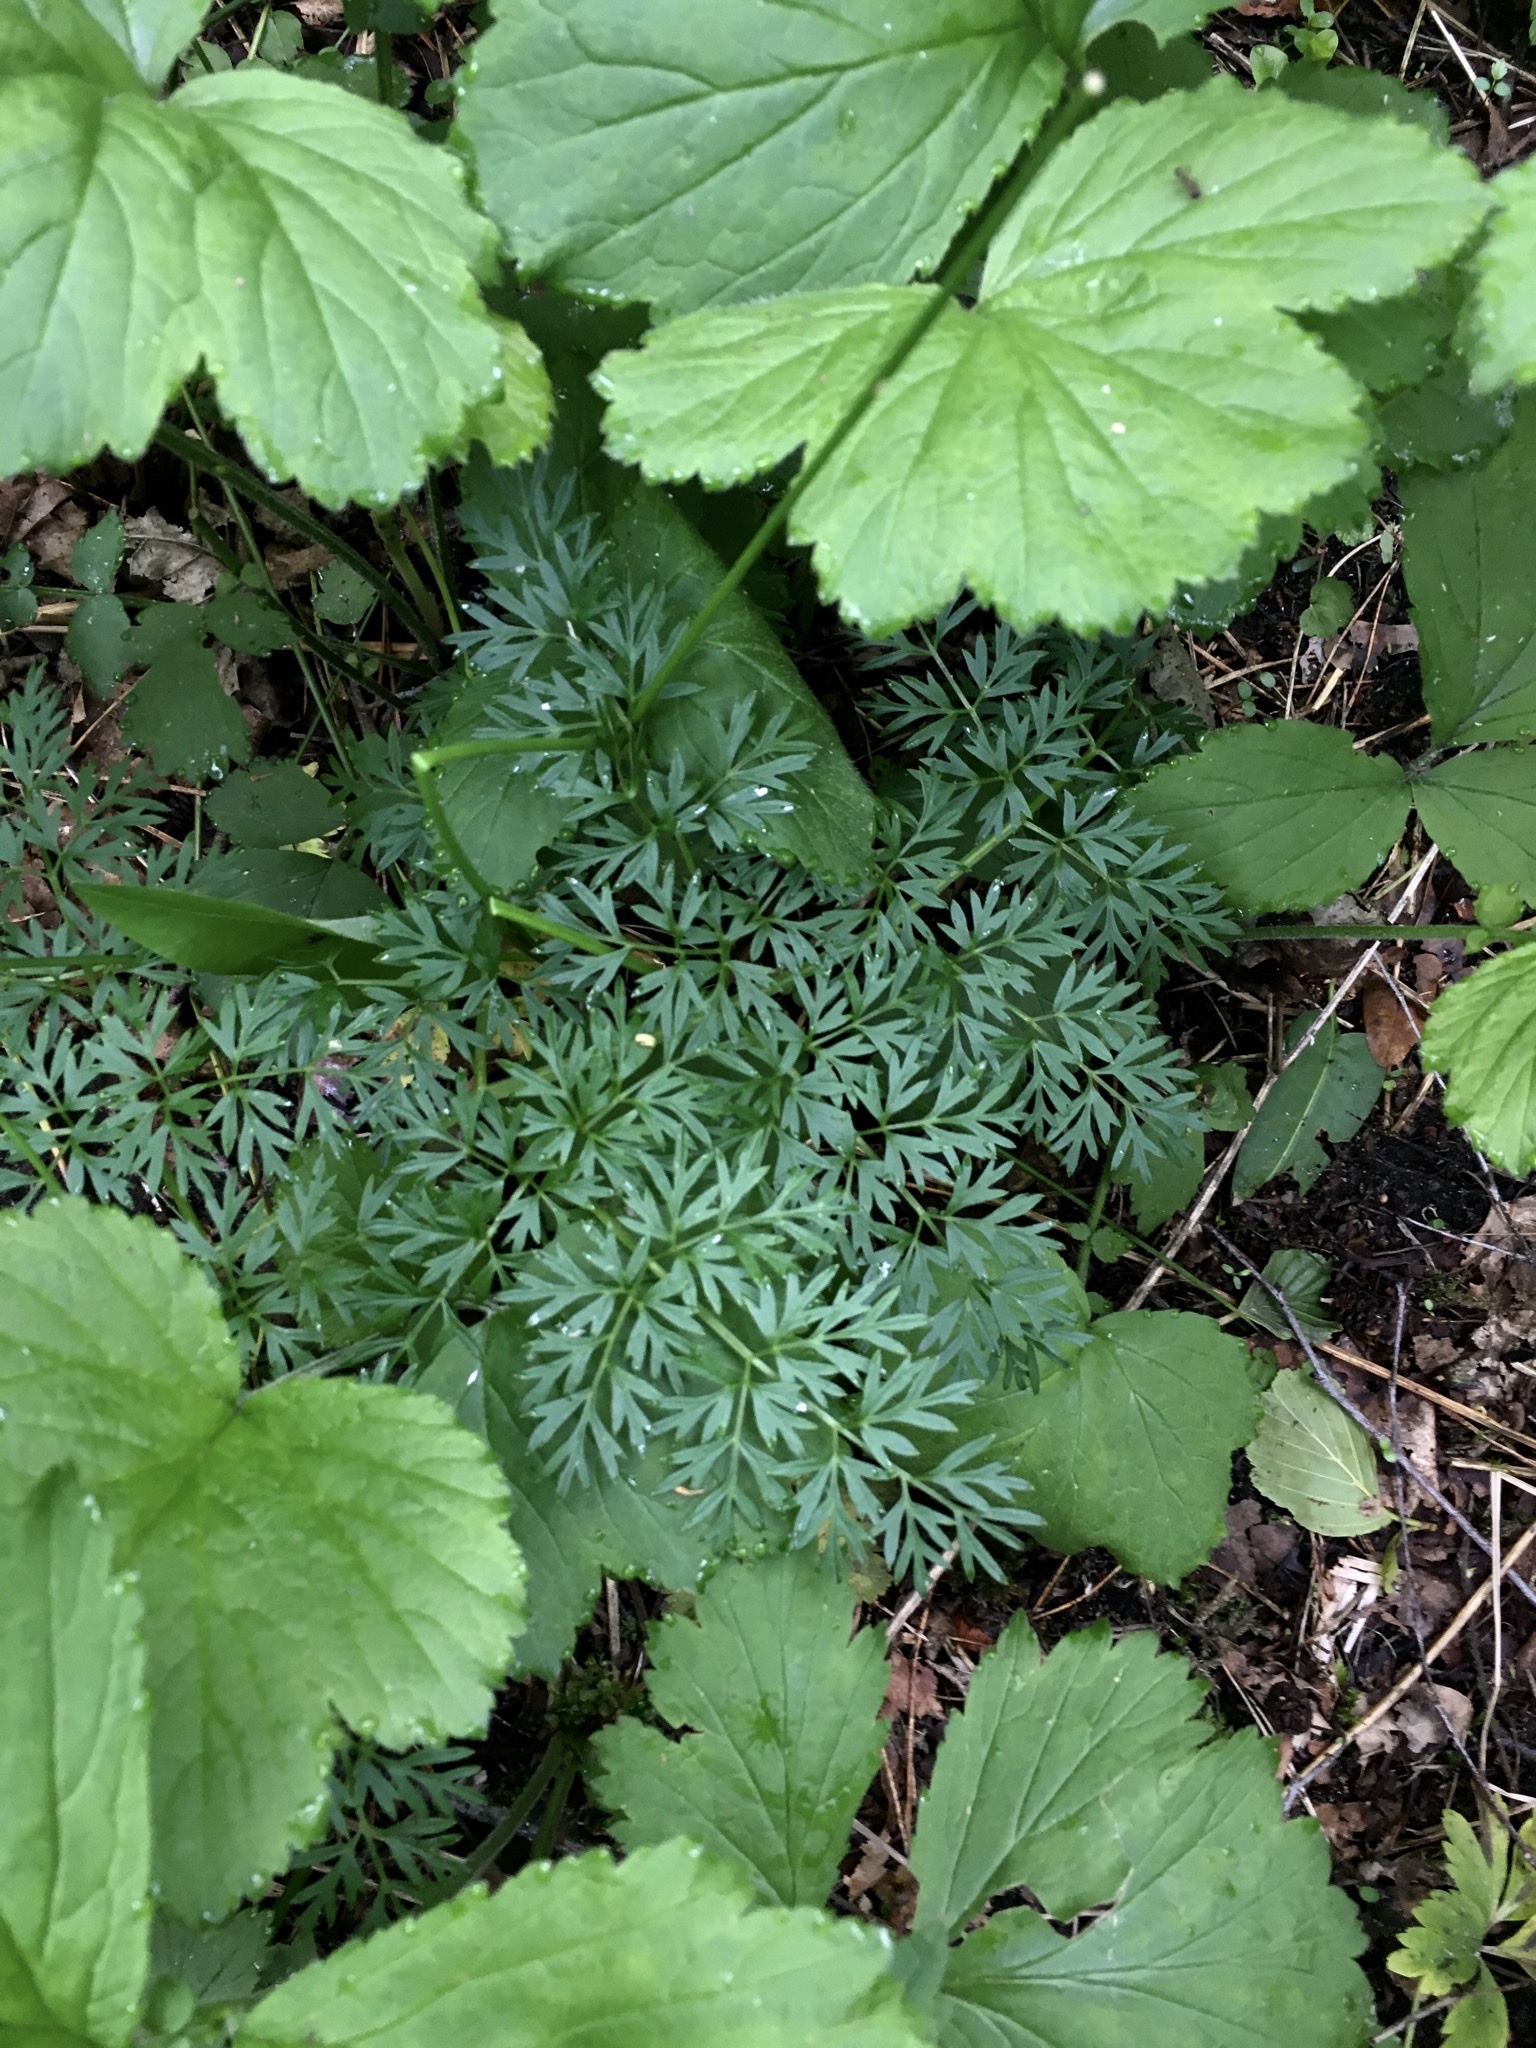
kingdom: Plantae
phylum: Tracheophyta
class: Magnoliopsida
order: Apiales
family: Apiaceae
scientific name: Apiaceae
